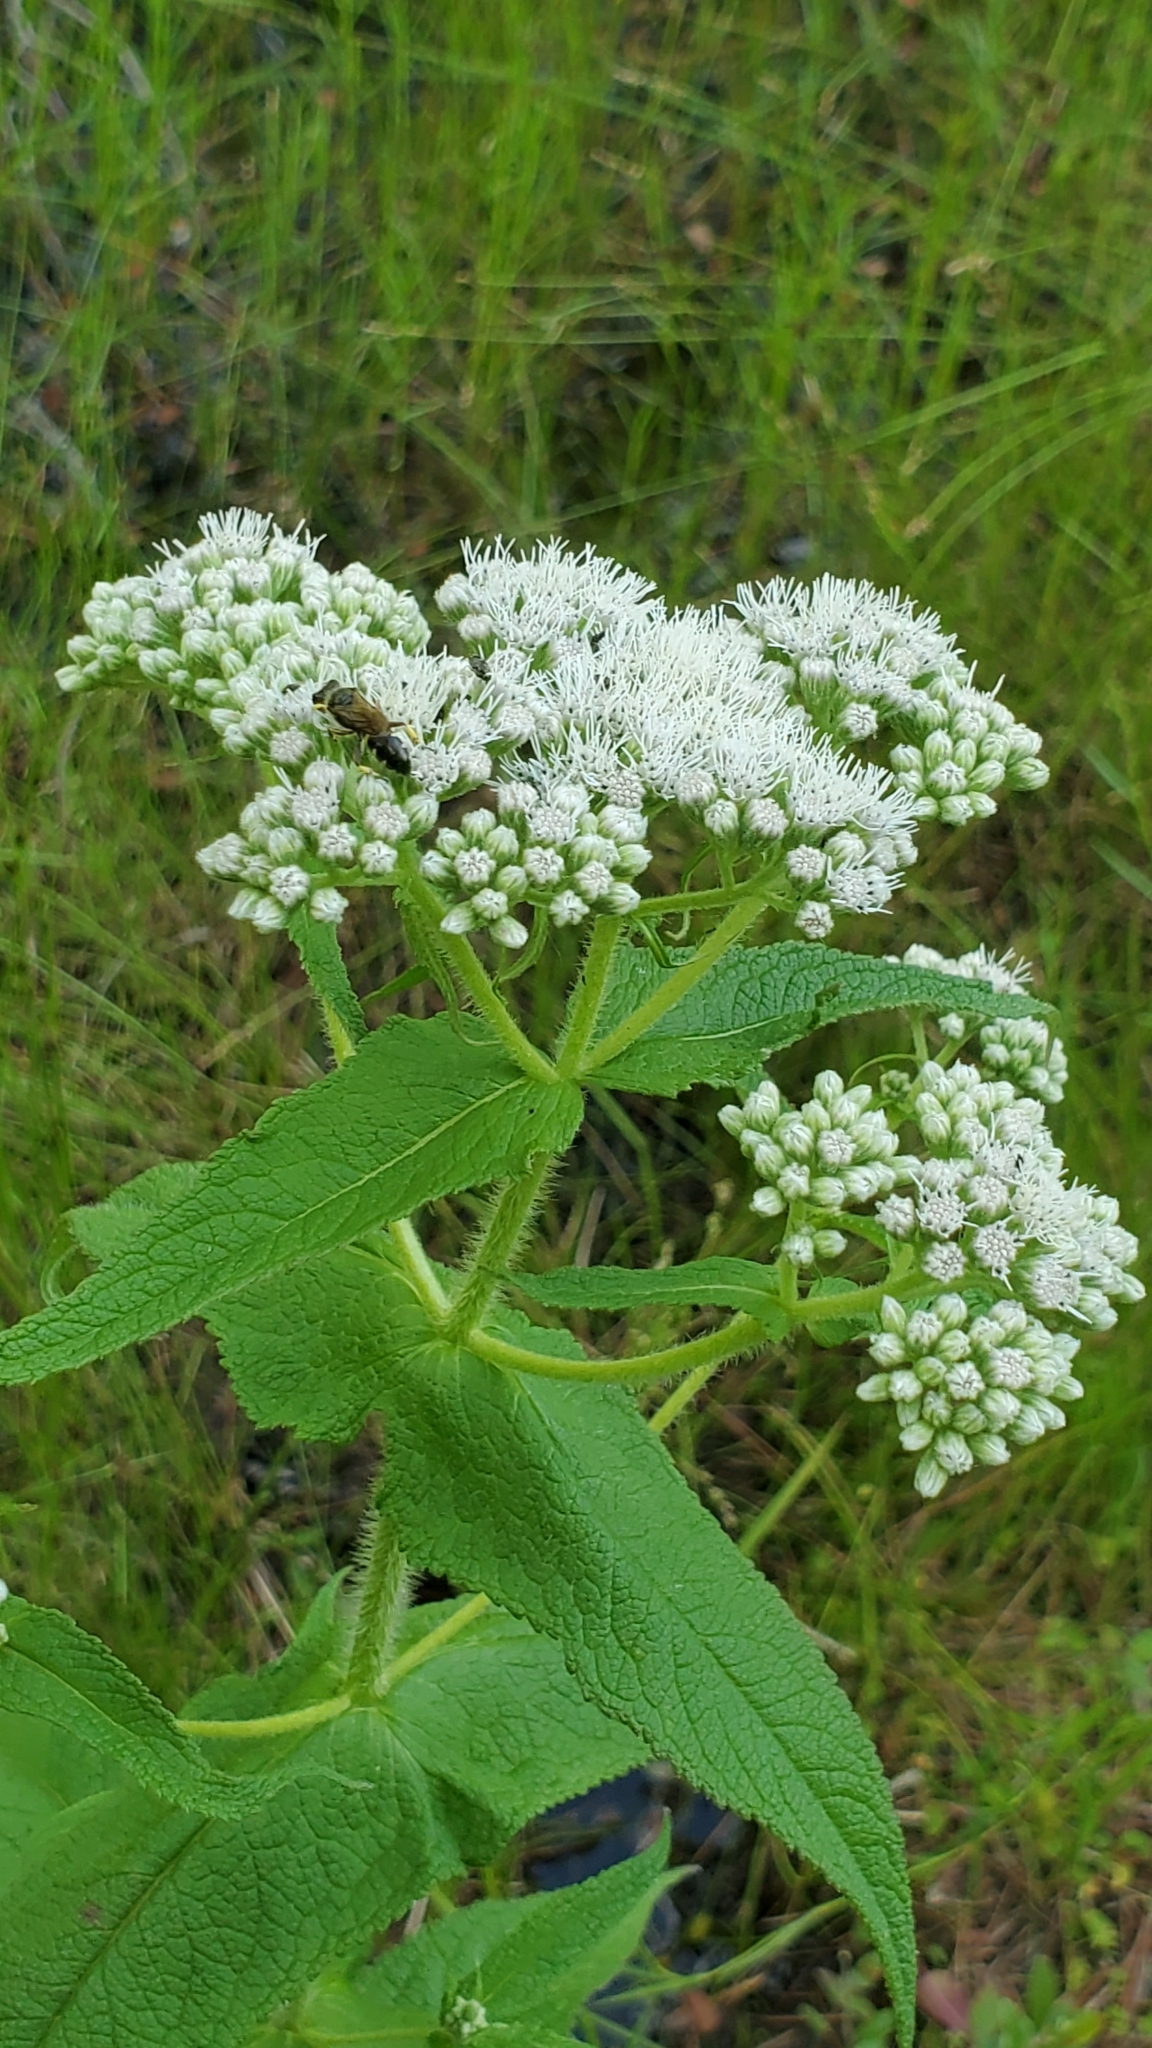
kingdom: Plantae
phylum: Tracheophyta
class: Magnoliopsida
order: Asterales
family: Asteraceae
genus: Eupatorium
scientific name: Eupatorium perfoliatum
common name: Boneset
